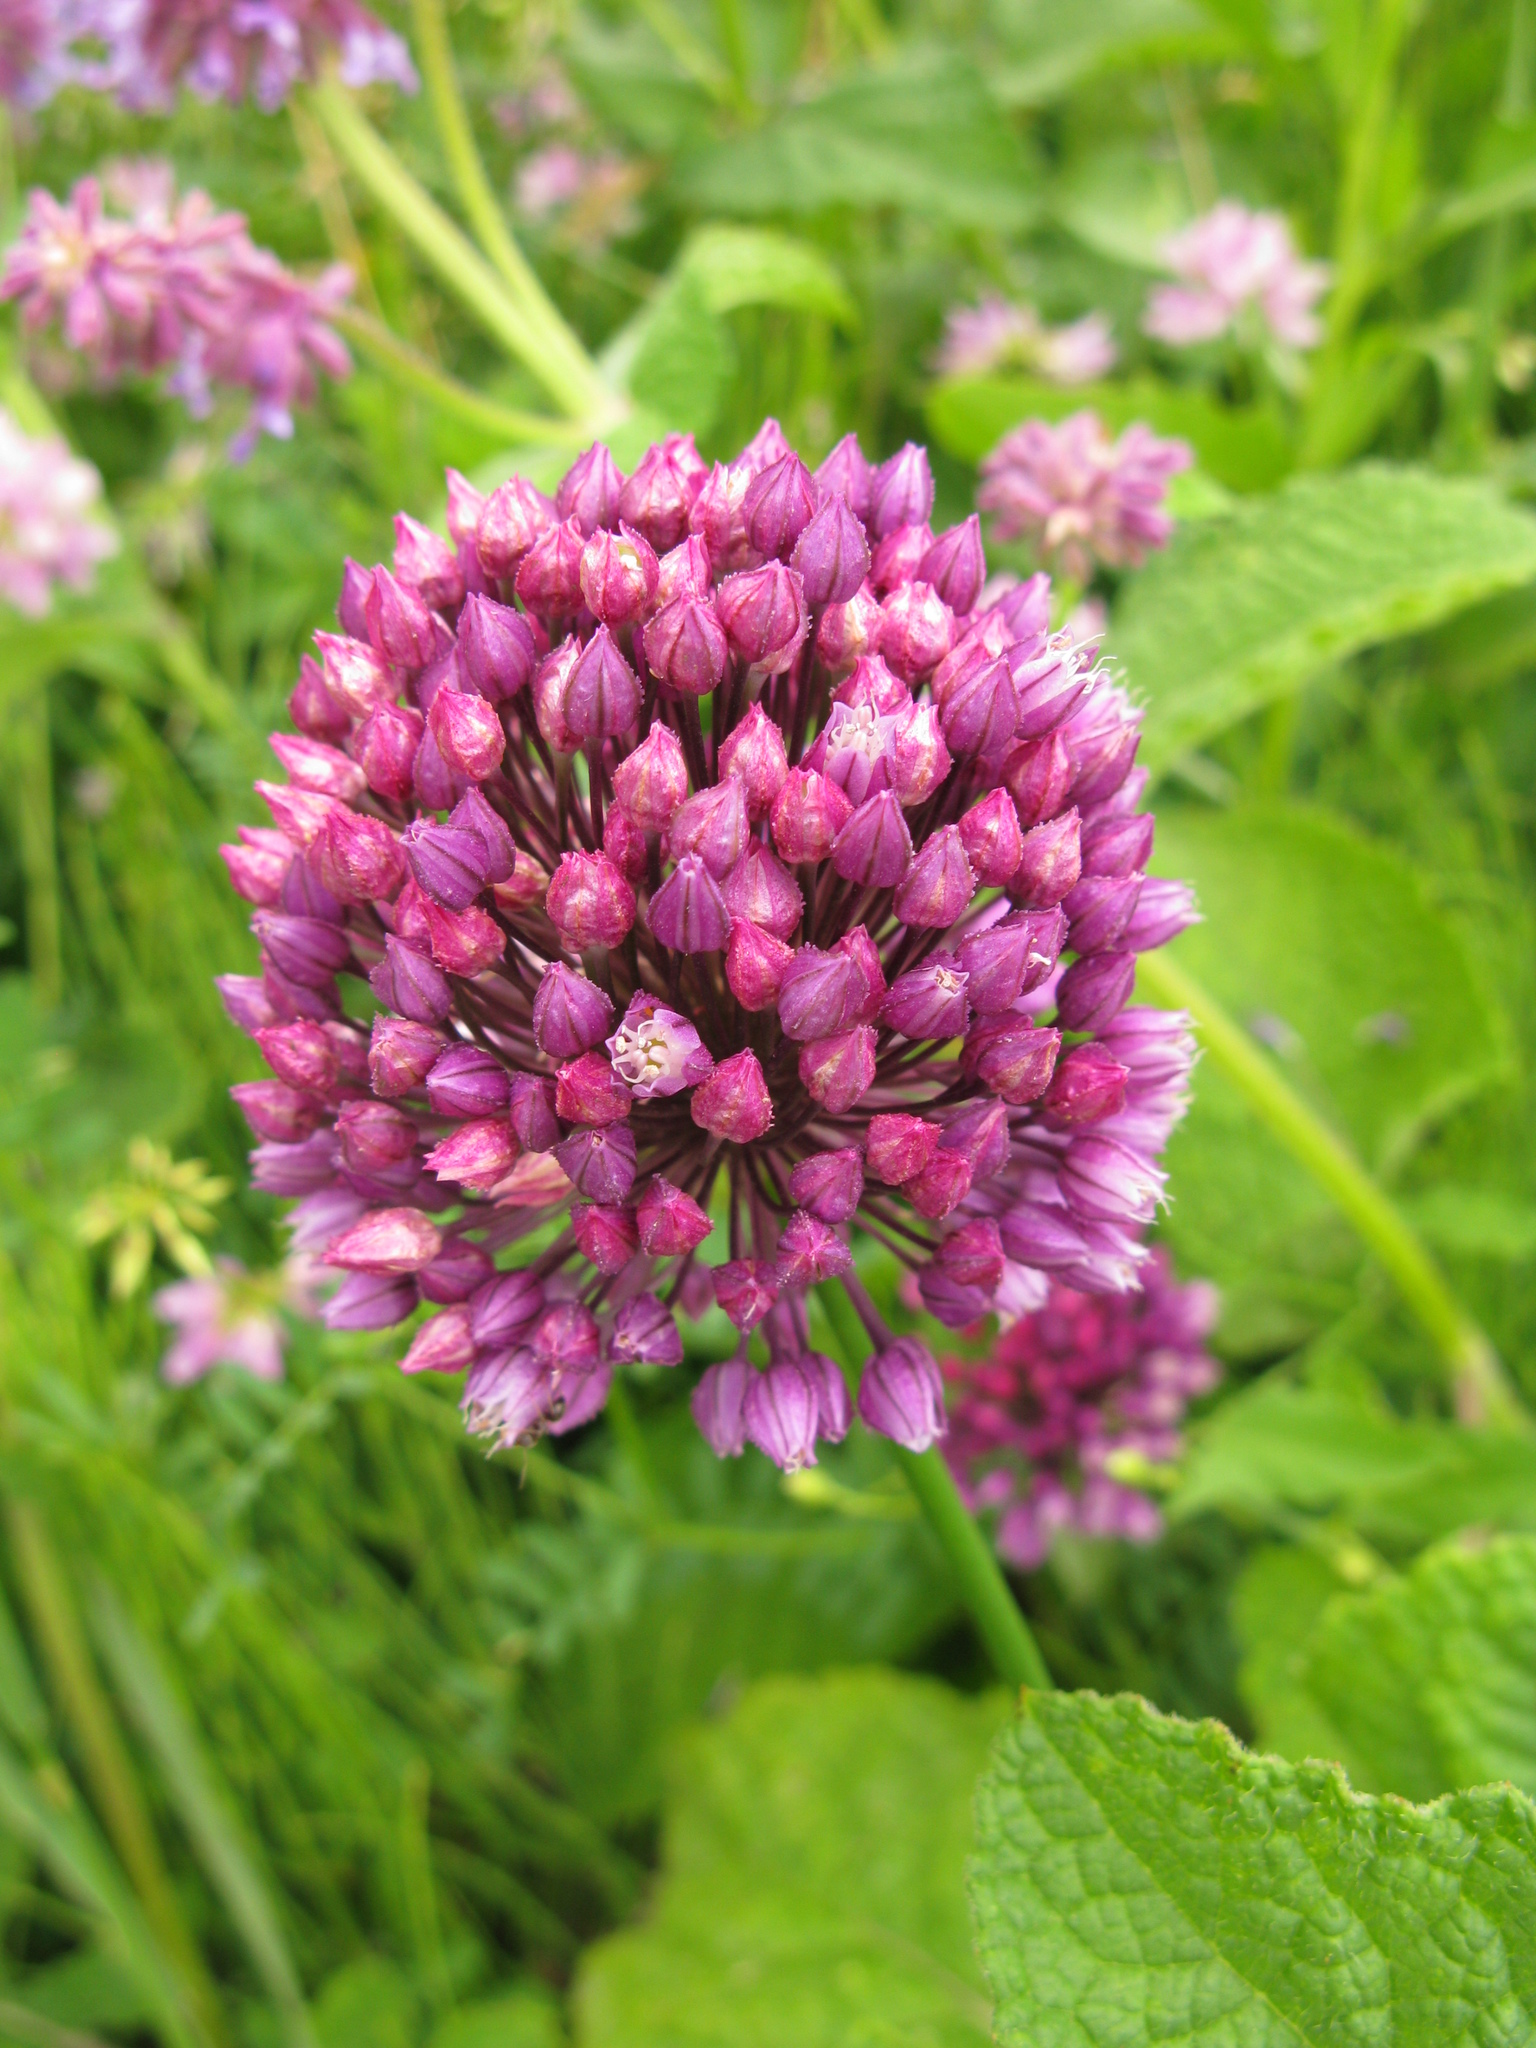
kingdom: Plantae
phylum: Tracheophyta
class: Liliopsida
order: Asparagales
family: Amaryllidaceae
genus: Allium
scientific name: Allium rotundum
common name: Sand leek
